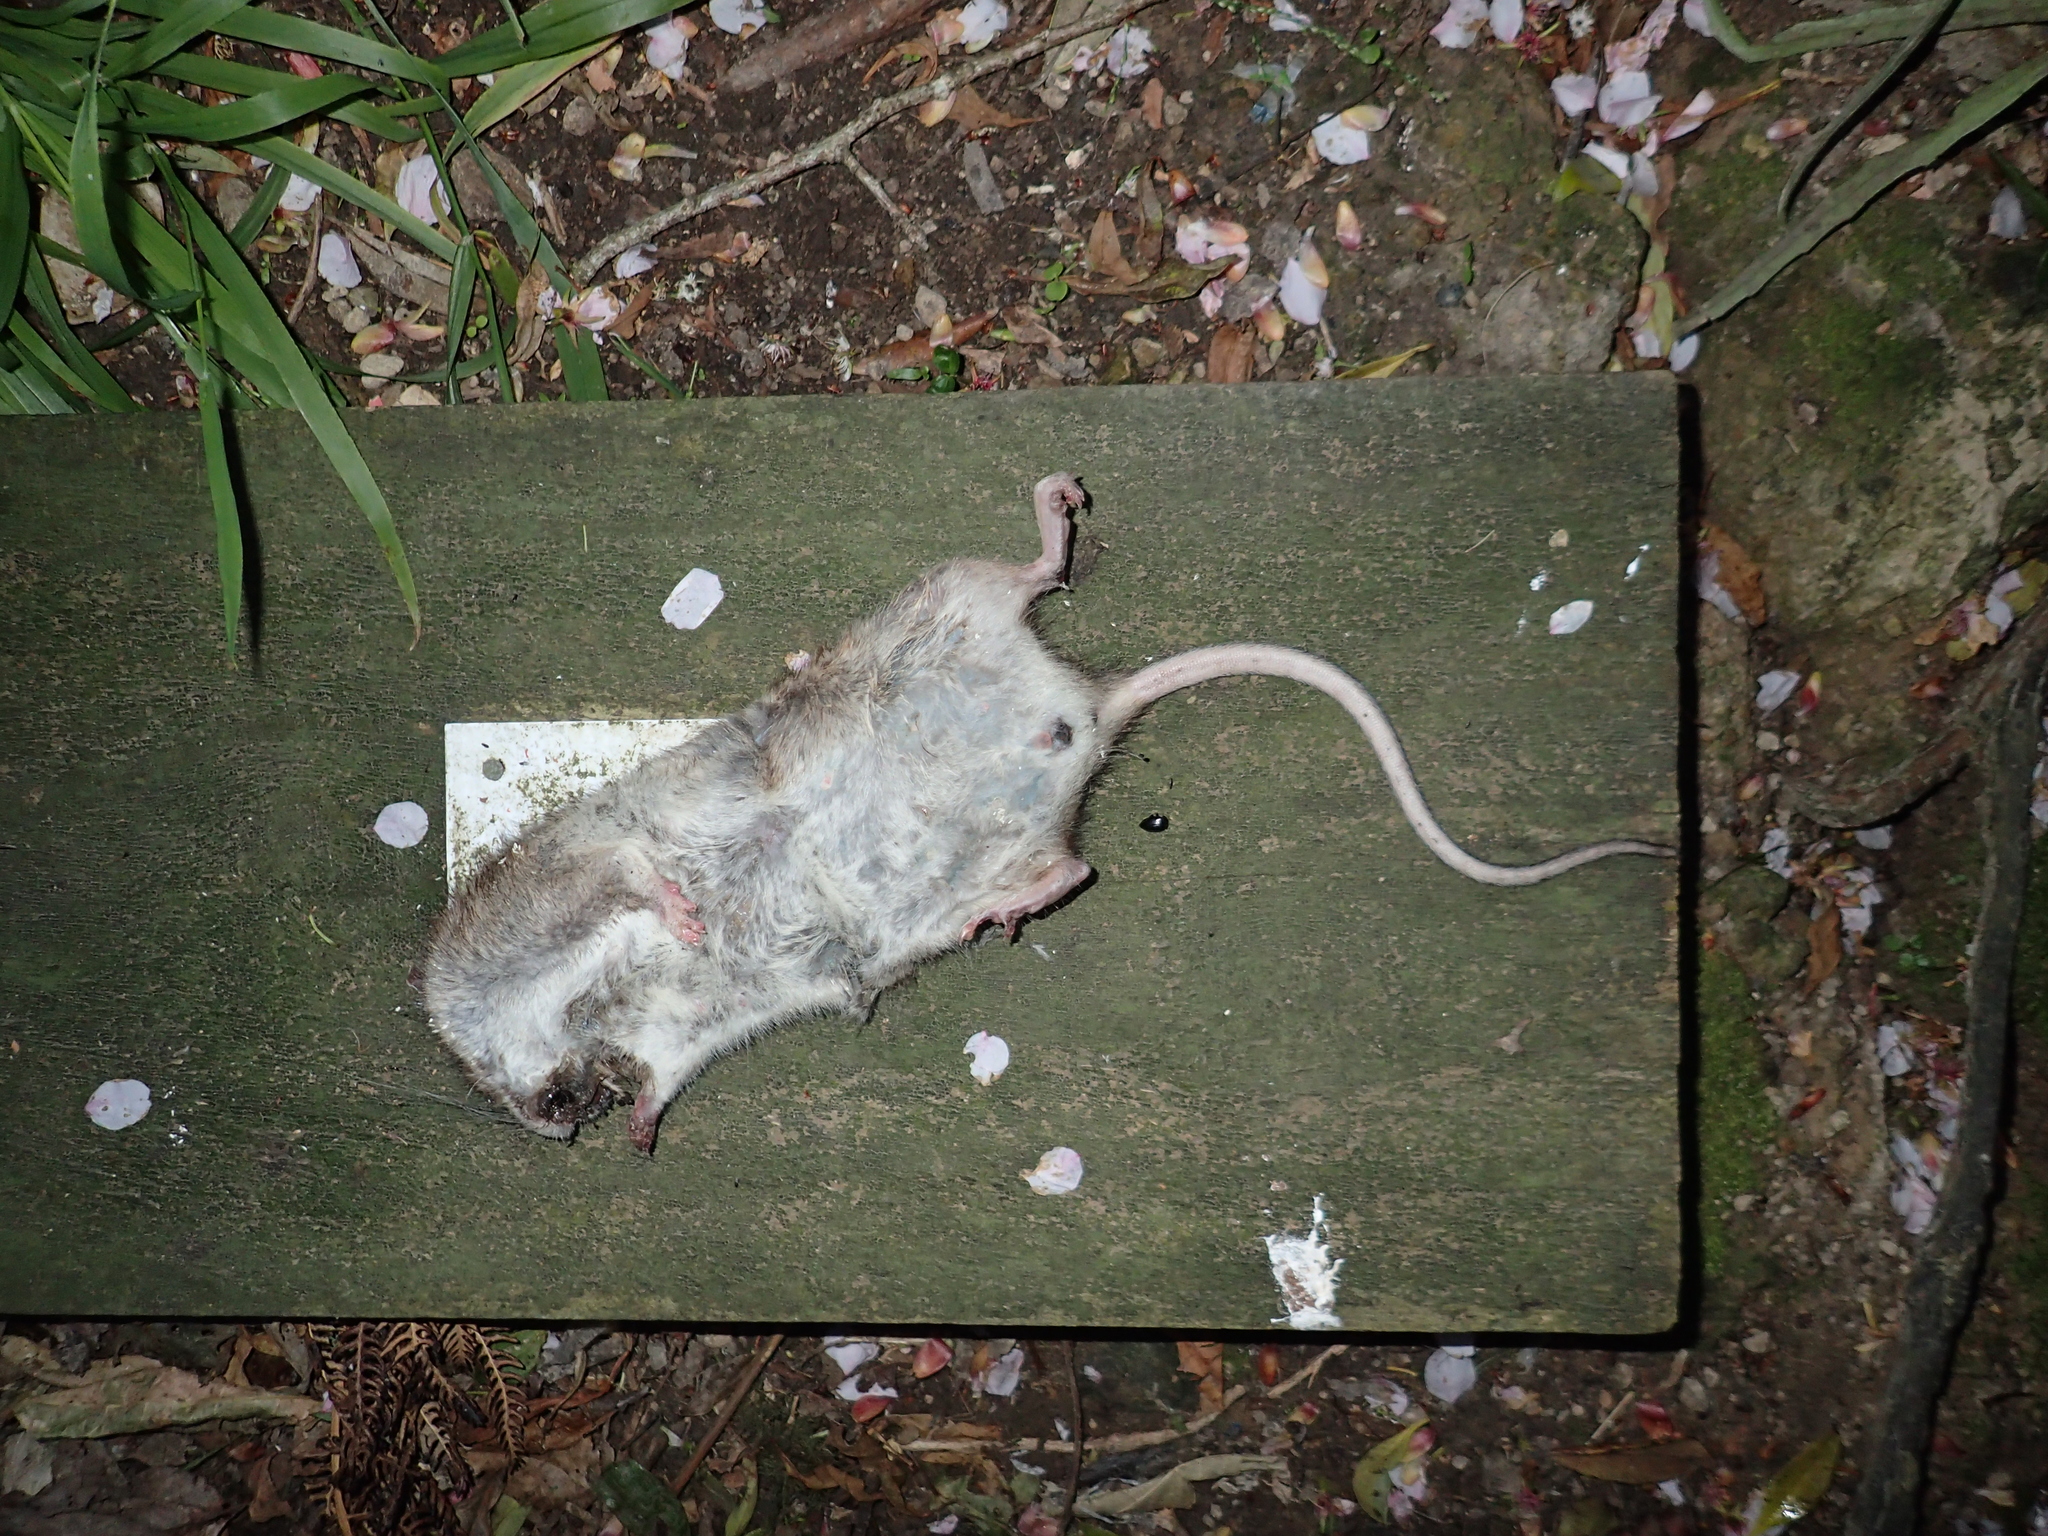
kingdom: Animalia
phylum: Chordata
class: Mammalia
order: Rodentia
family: Muridae
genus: Rattus
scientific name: Rattus norvegicus
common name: Brown rat
